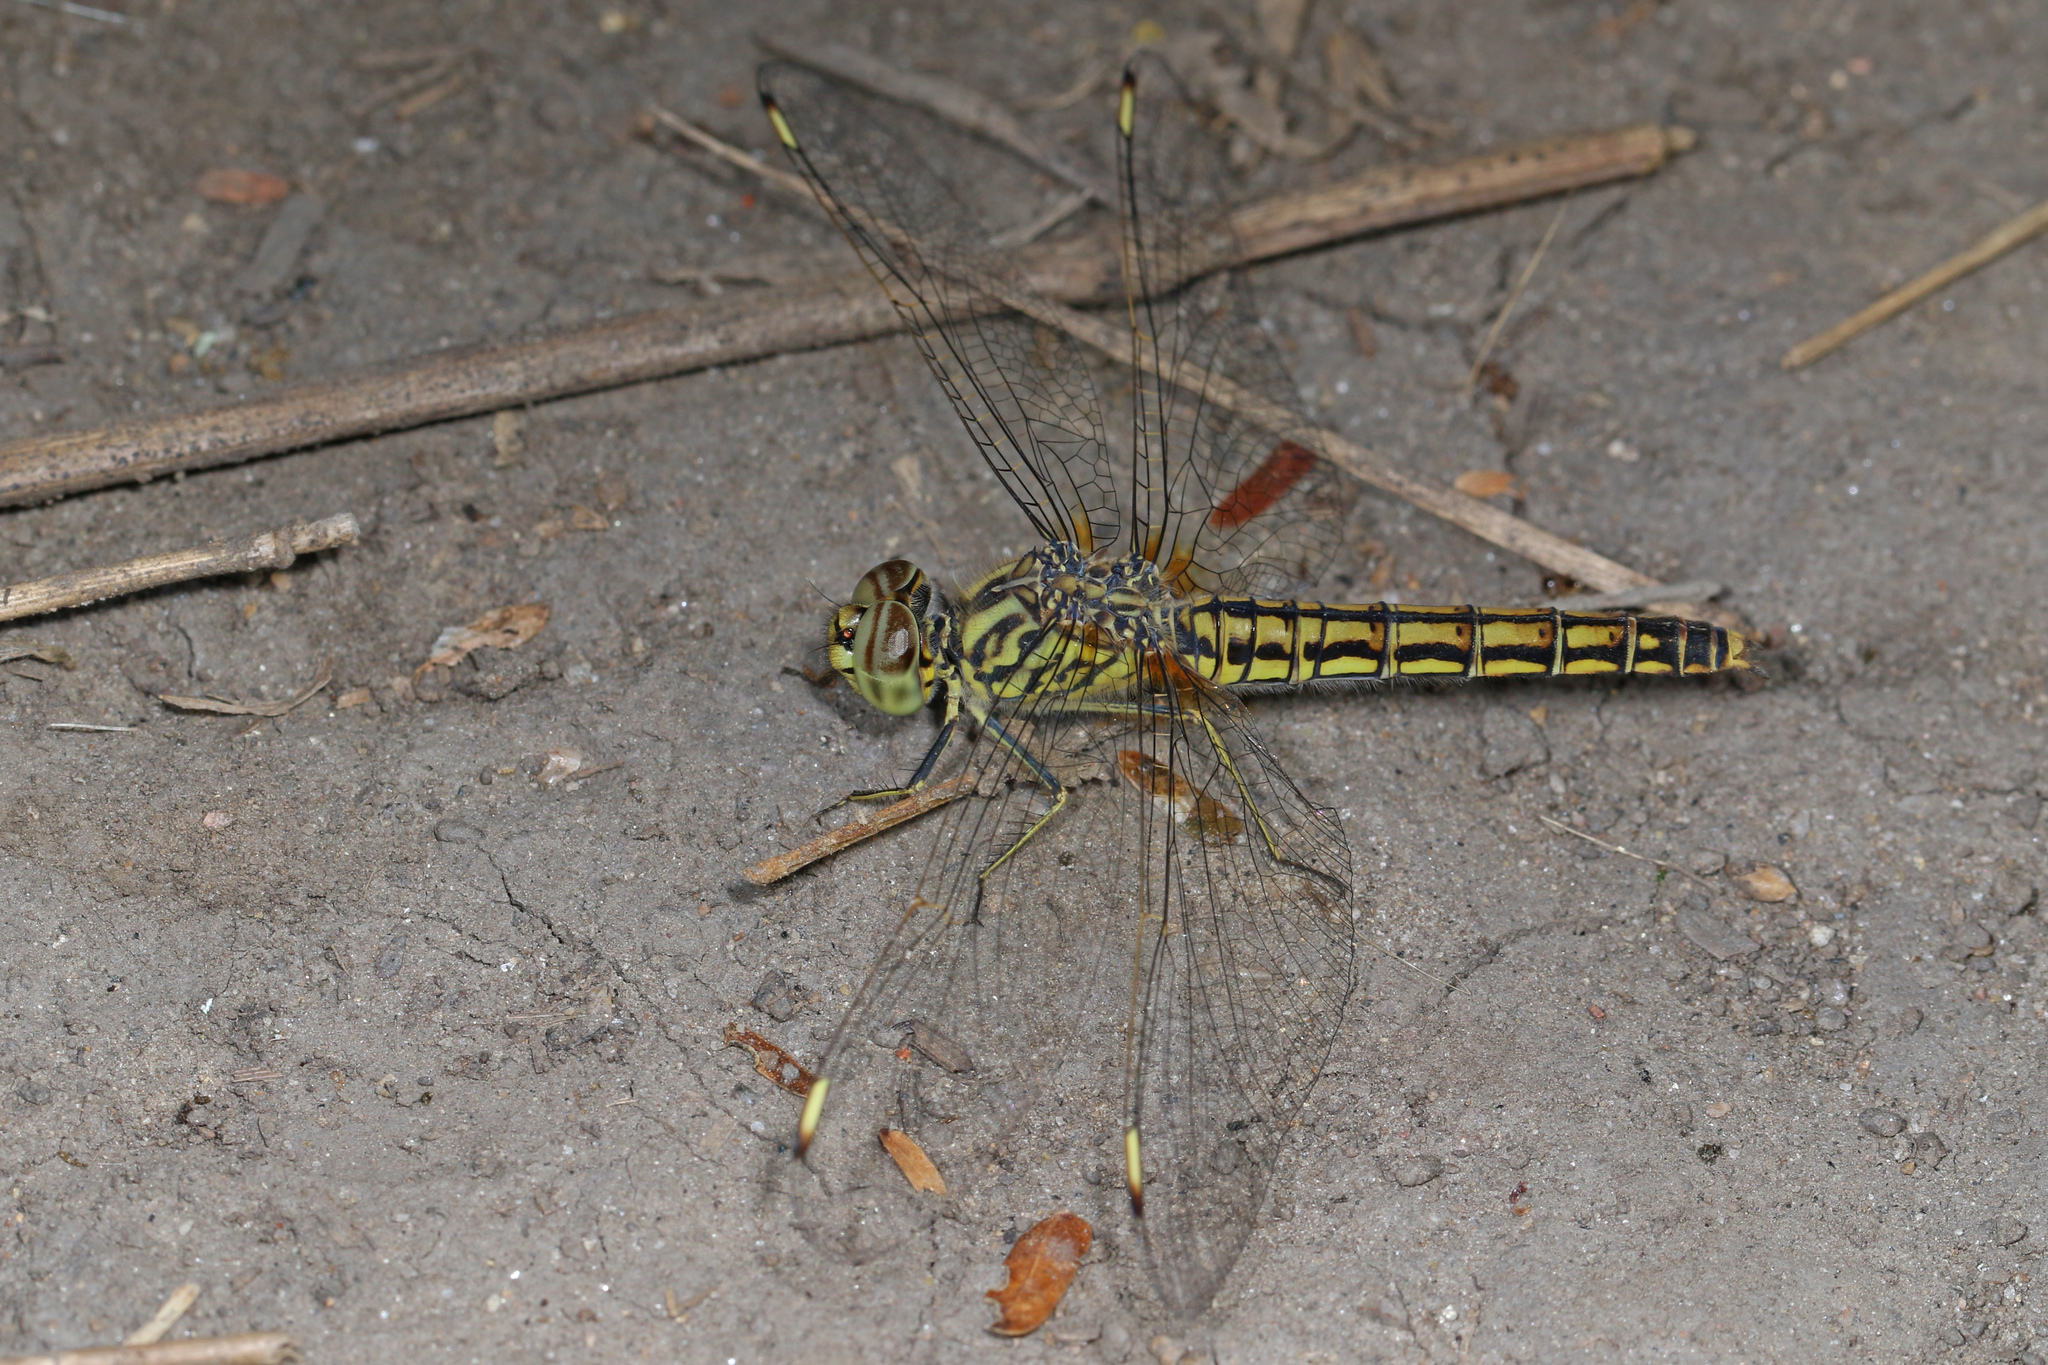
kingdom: Animalia
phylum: Arthropoda
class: Insecta
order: Odonata
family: Libellulidae
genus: Brachythemis
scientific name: Brachythemis leucosticta
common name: Banded groundling
